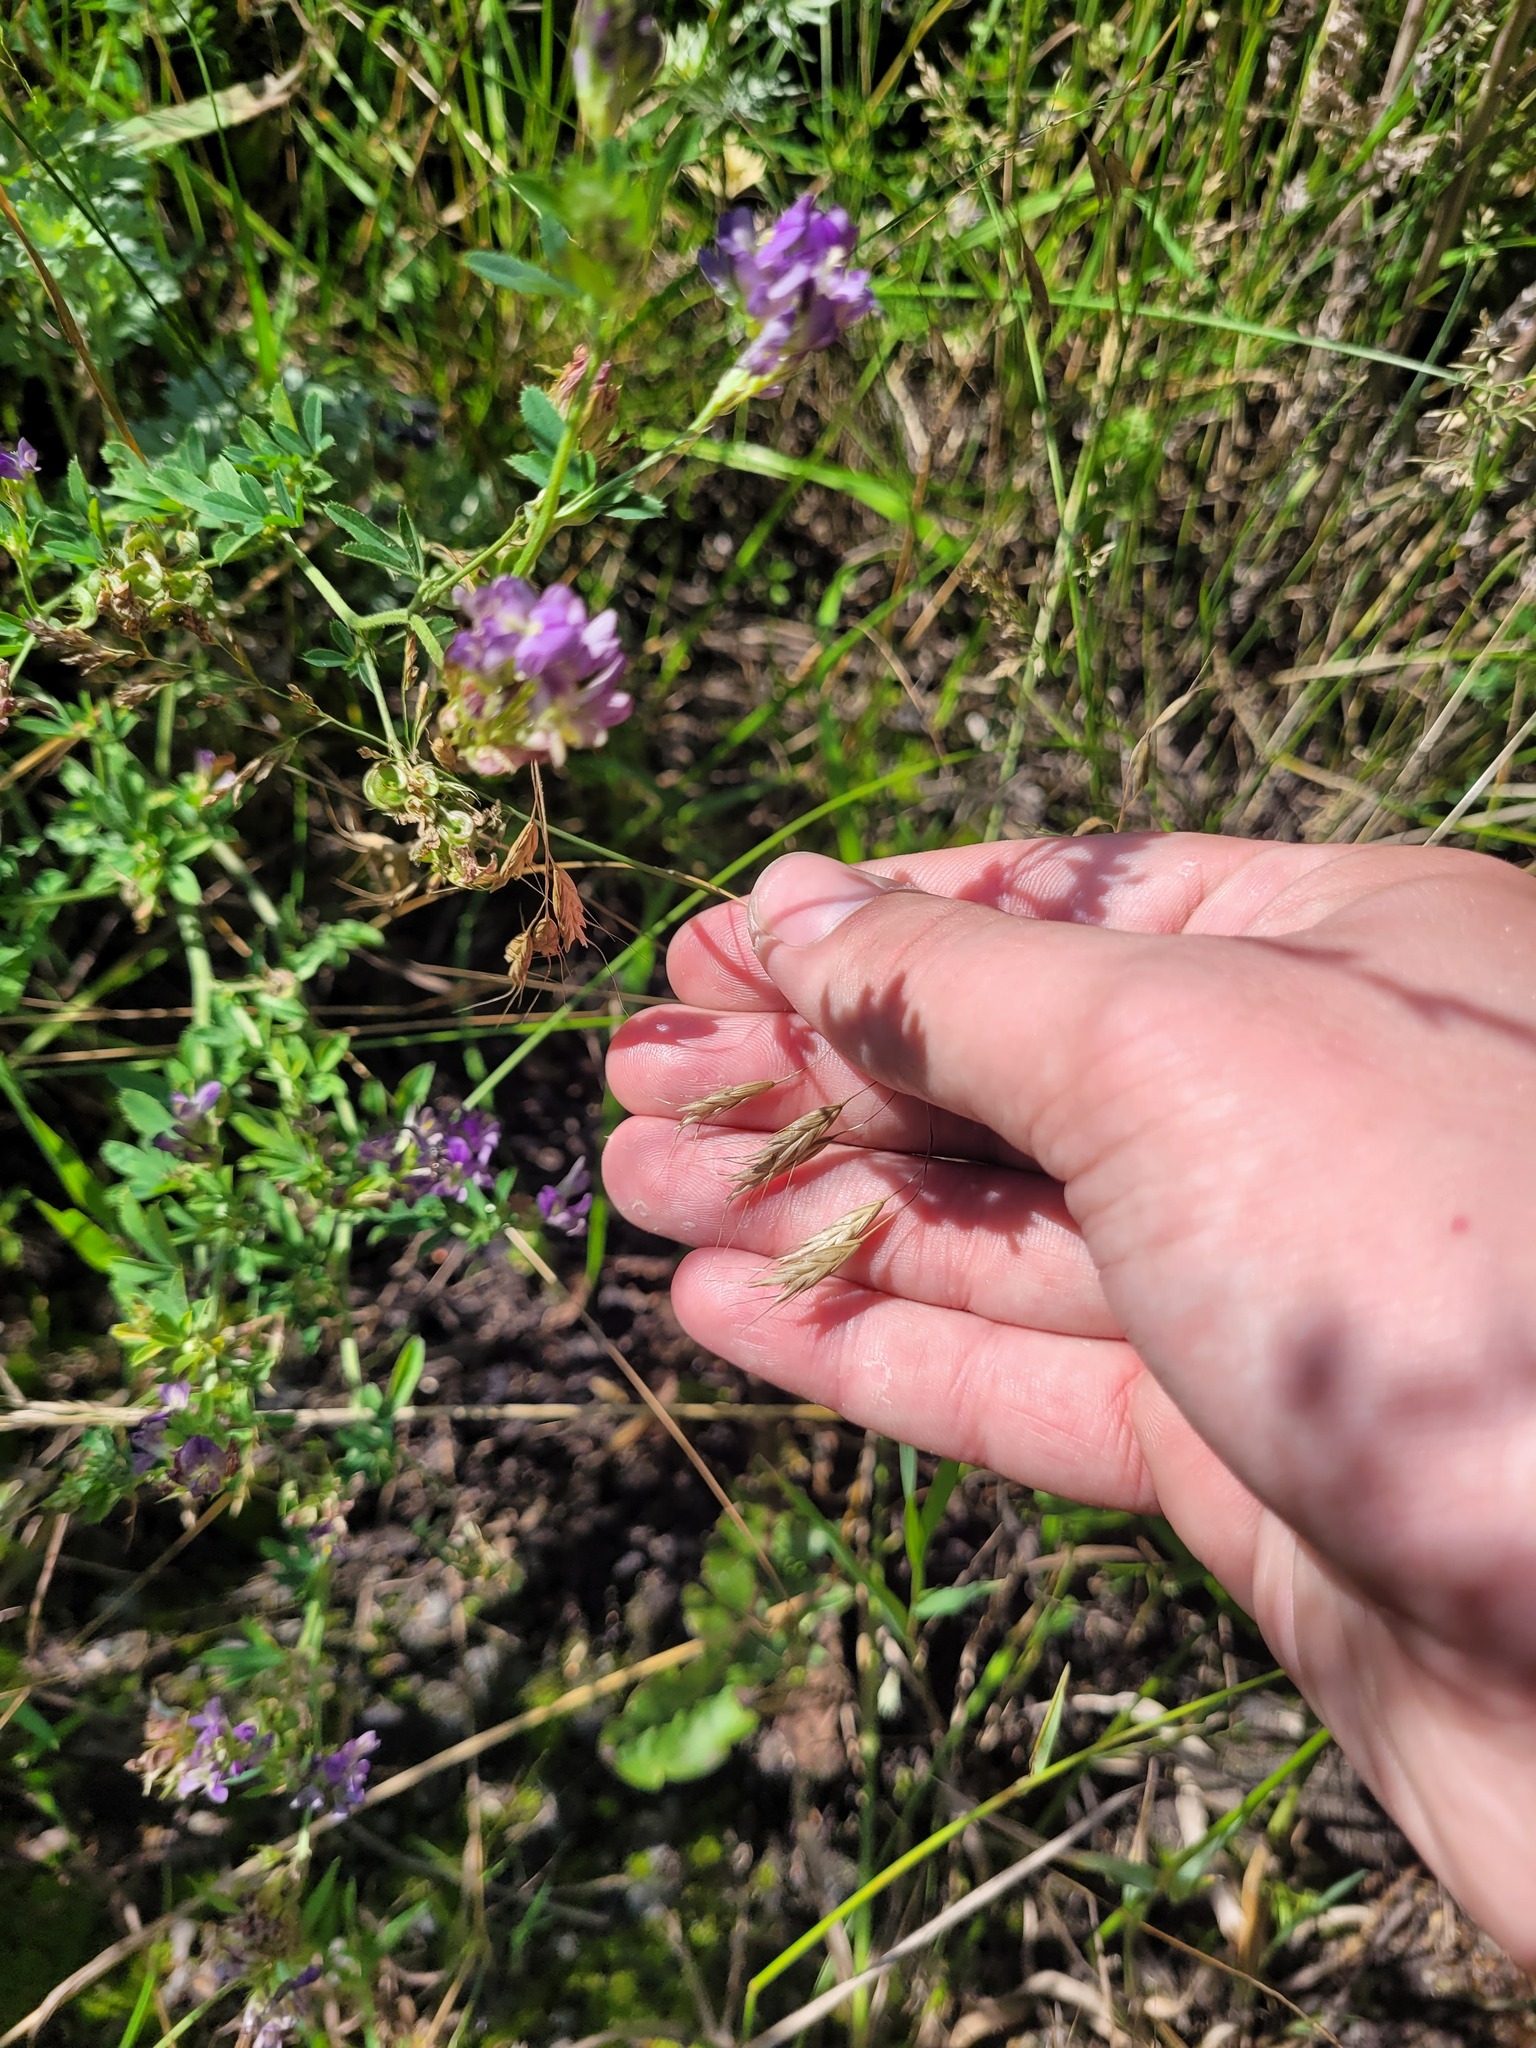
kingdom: Plantae
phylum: Tracheophyta
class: Liliopsida
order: Poales
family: Poaceae
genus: Bromus
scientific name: Bromus japonicus
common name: Japanese brome
